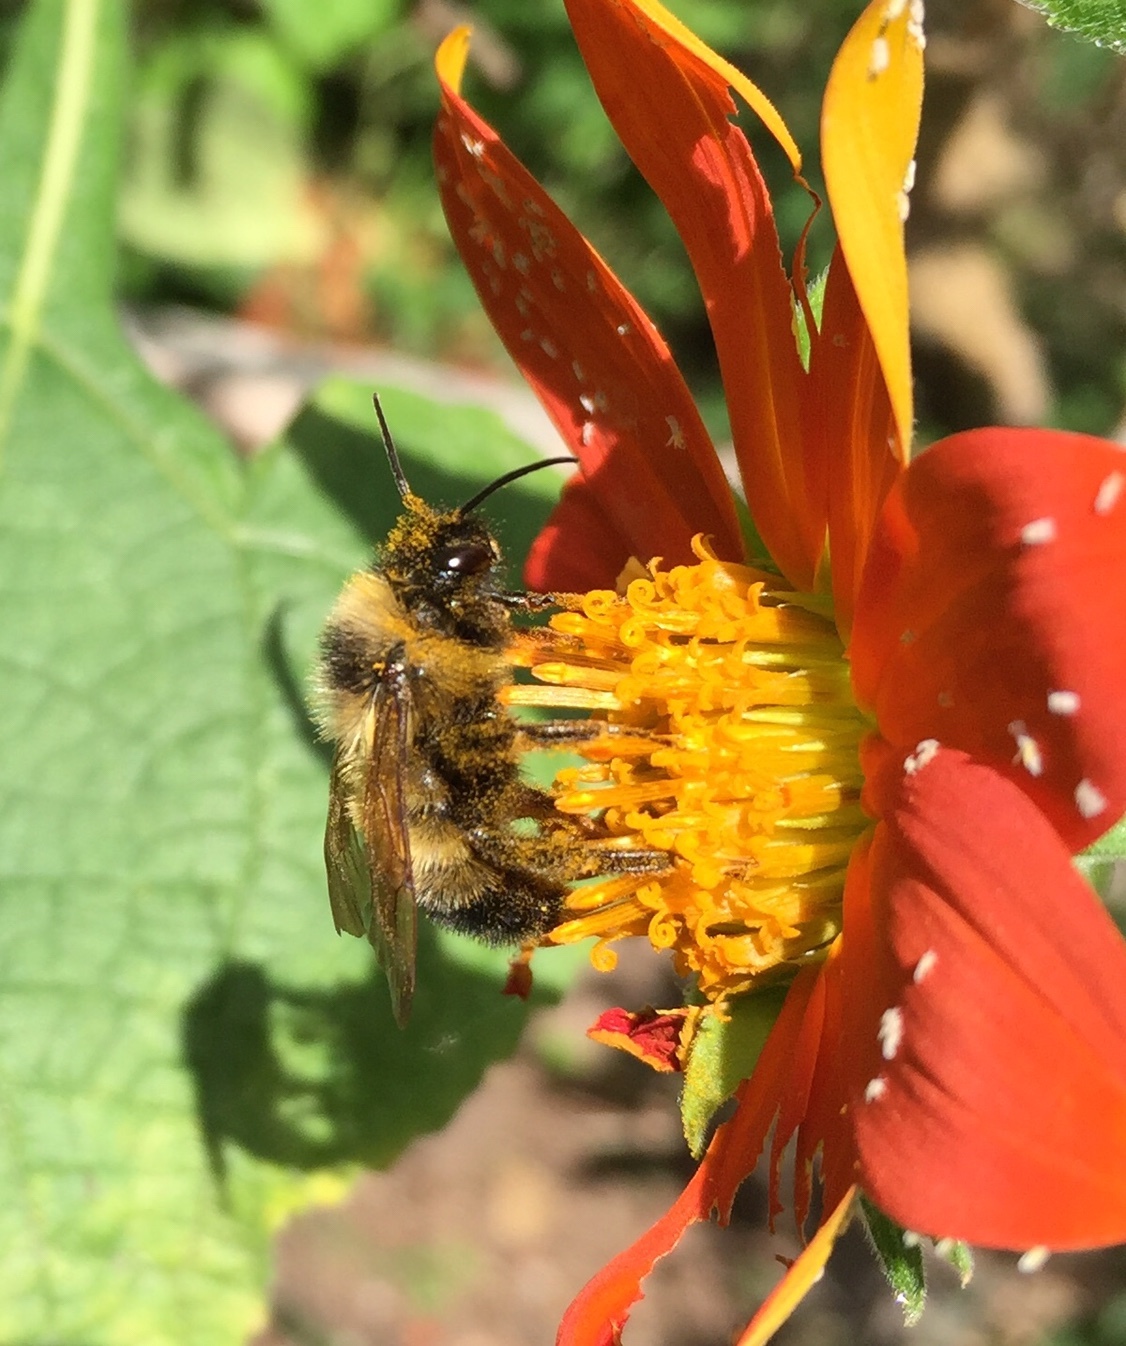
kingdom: Animalia
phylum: Arthropoda
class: Insecta
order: Hymenoptera
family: Apidae
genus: Bombus
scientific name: Bombus citrinus
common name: Lemon cuckoo bumble bee
